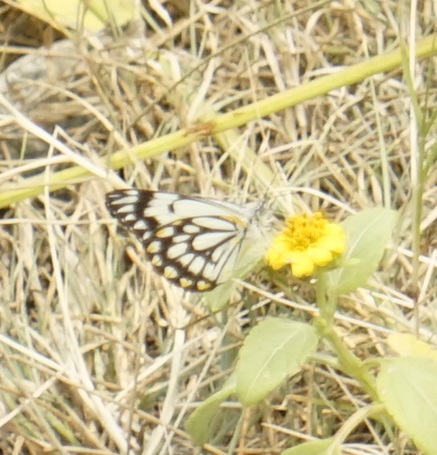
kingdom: Animalia
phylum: Arthropoda
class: Insecta
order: Lepidoptera
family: Pieridae
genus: Belenois
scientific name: Belenois java
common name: Caper white
